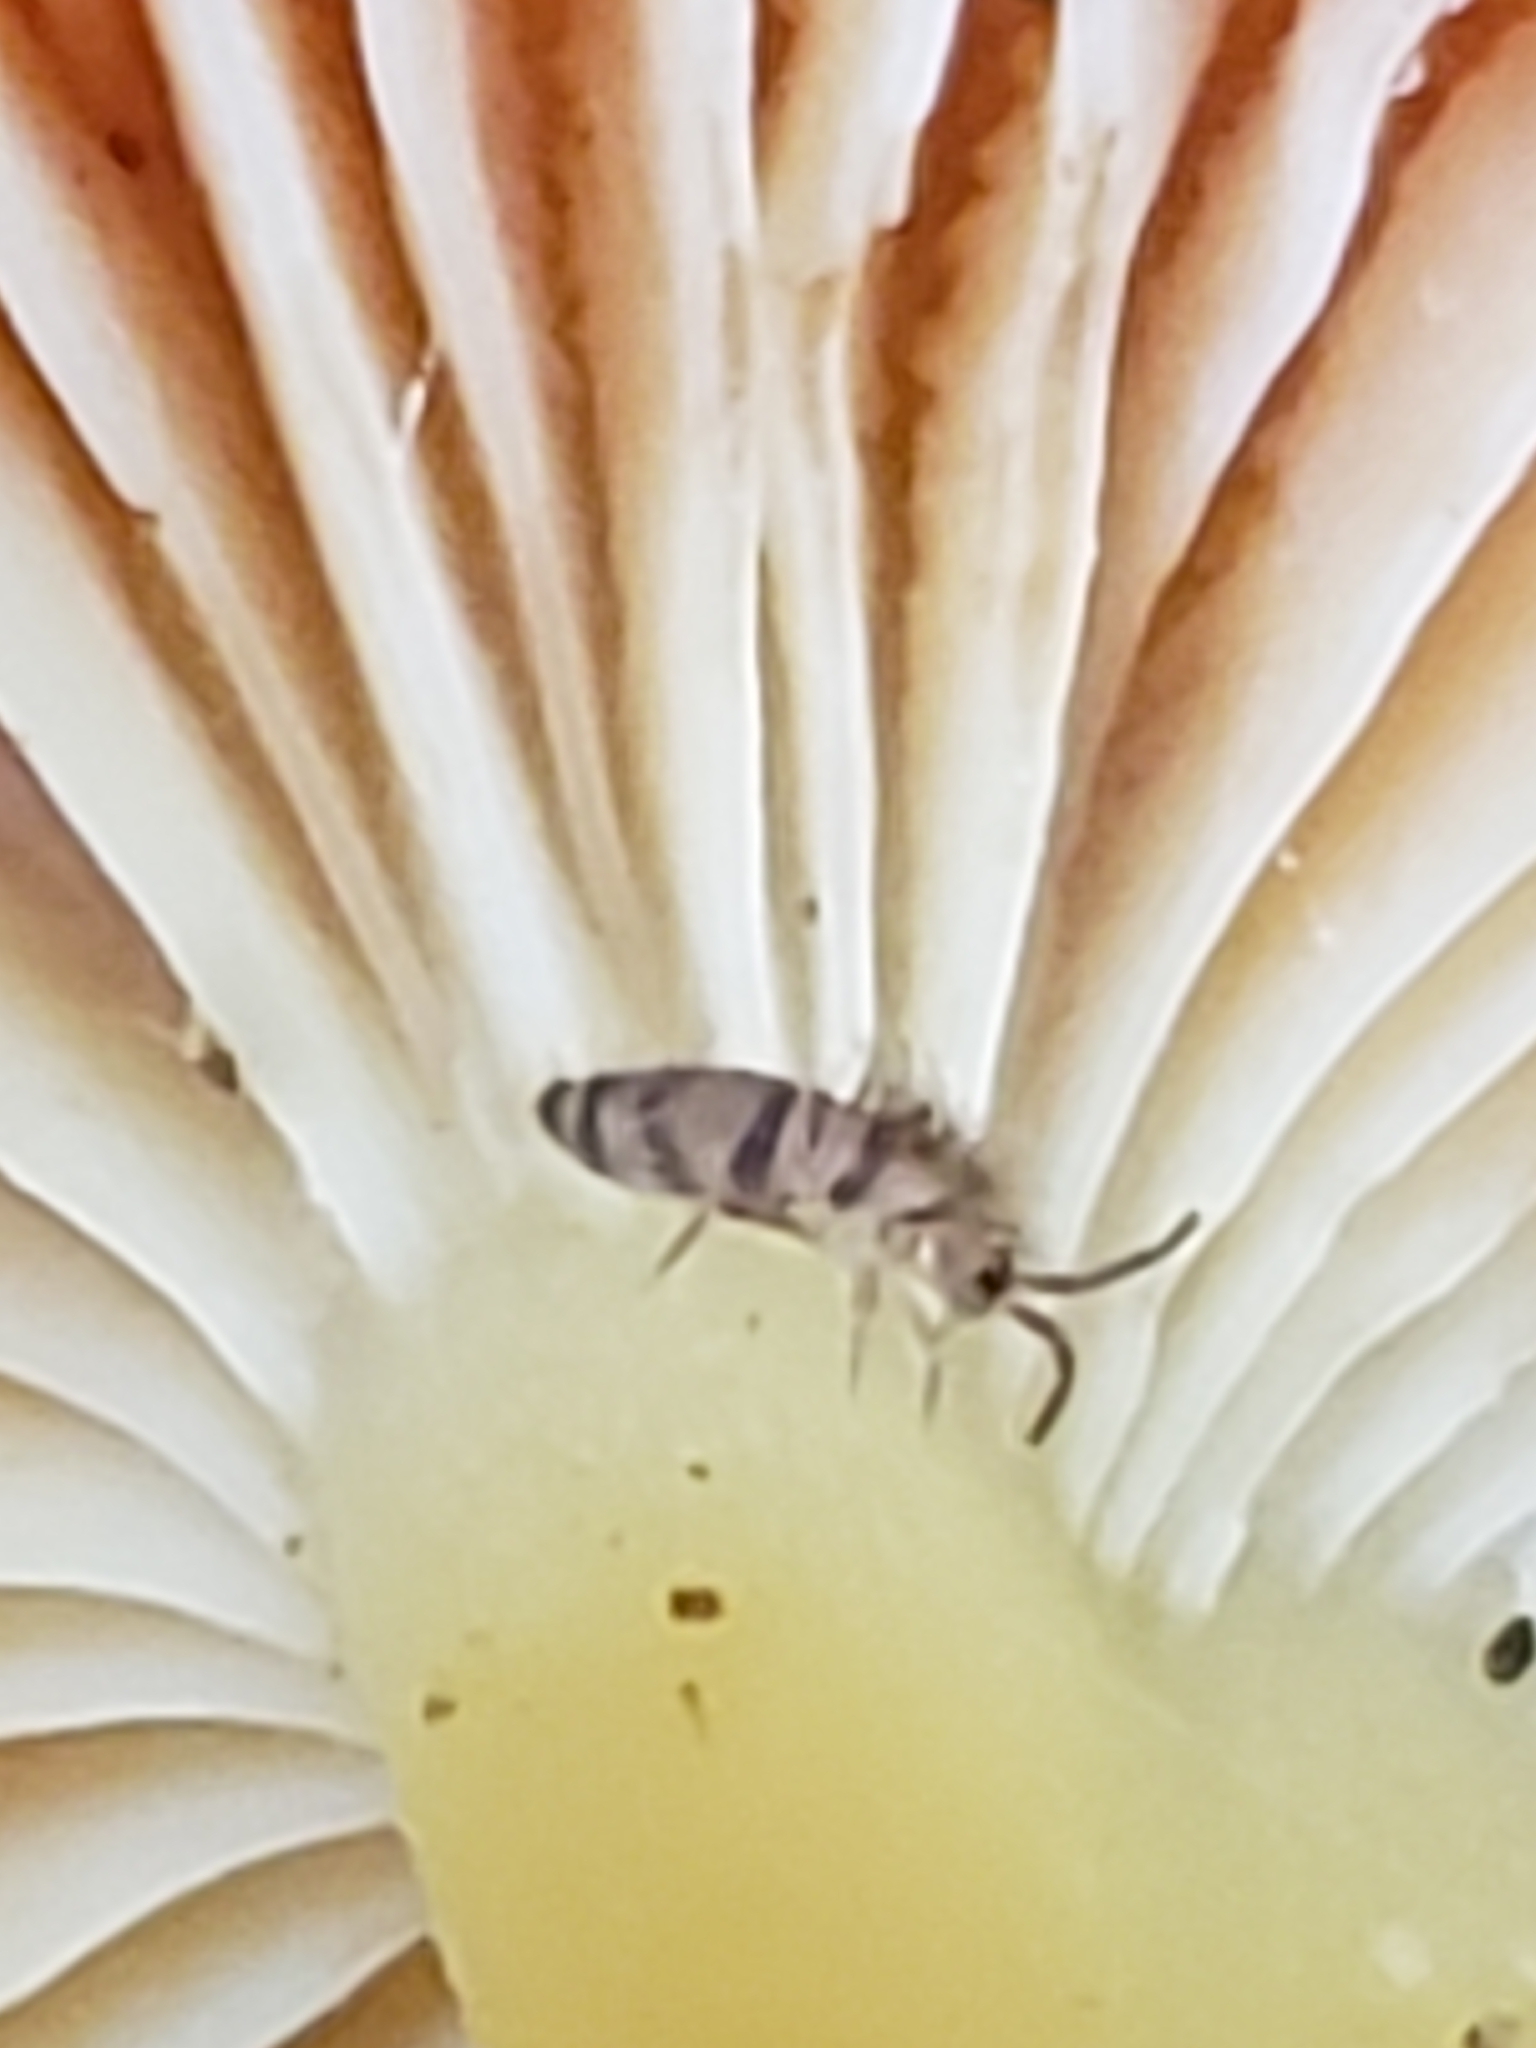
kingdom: Animalia
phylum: Arthropoda
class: Collembola
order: Entomobryomorpha
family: Entomobryidae
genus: Homidia
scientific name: Homidia sauteri
